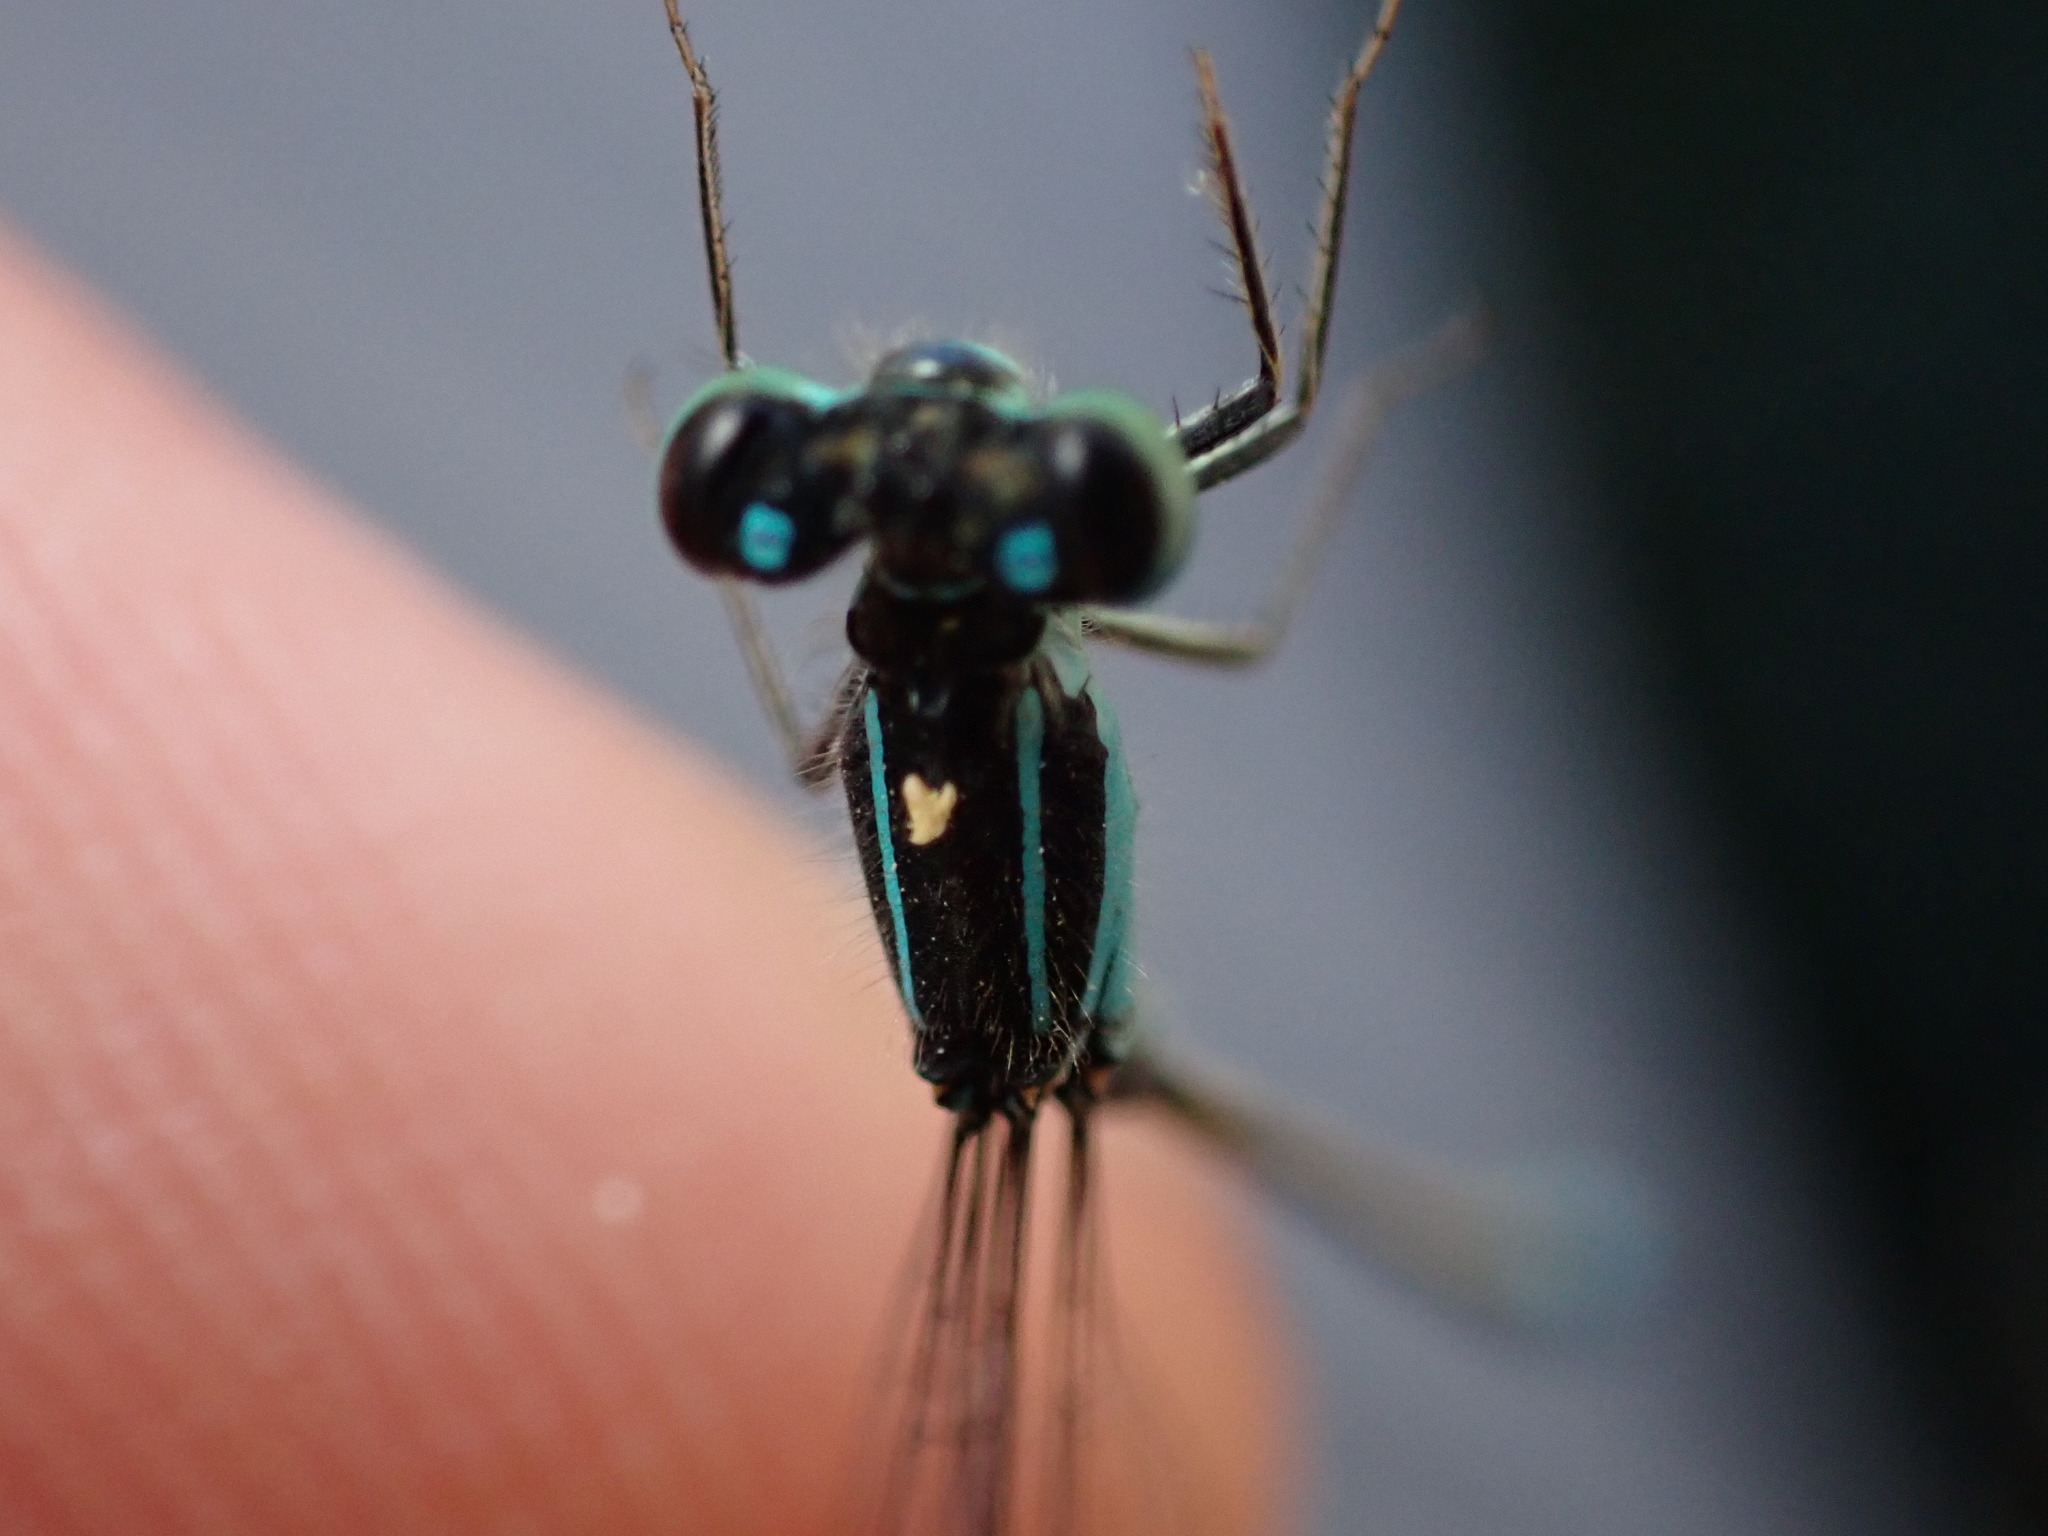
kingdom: Animalia
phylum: Arthropoda
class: Insecta
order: Odonata
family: Coenagrionidae
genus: Ischnura
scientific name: Ischnura elegans
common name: Blue-tailed damselfly
